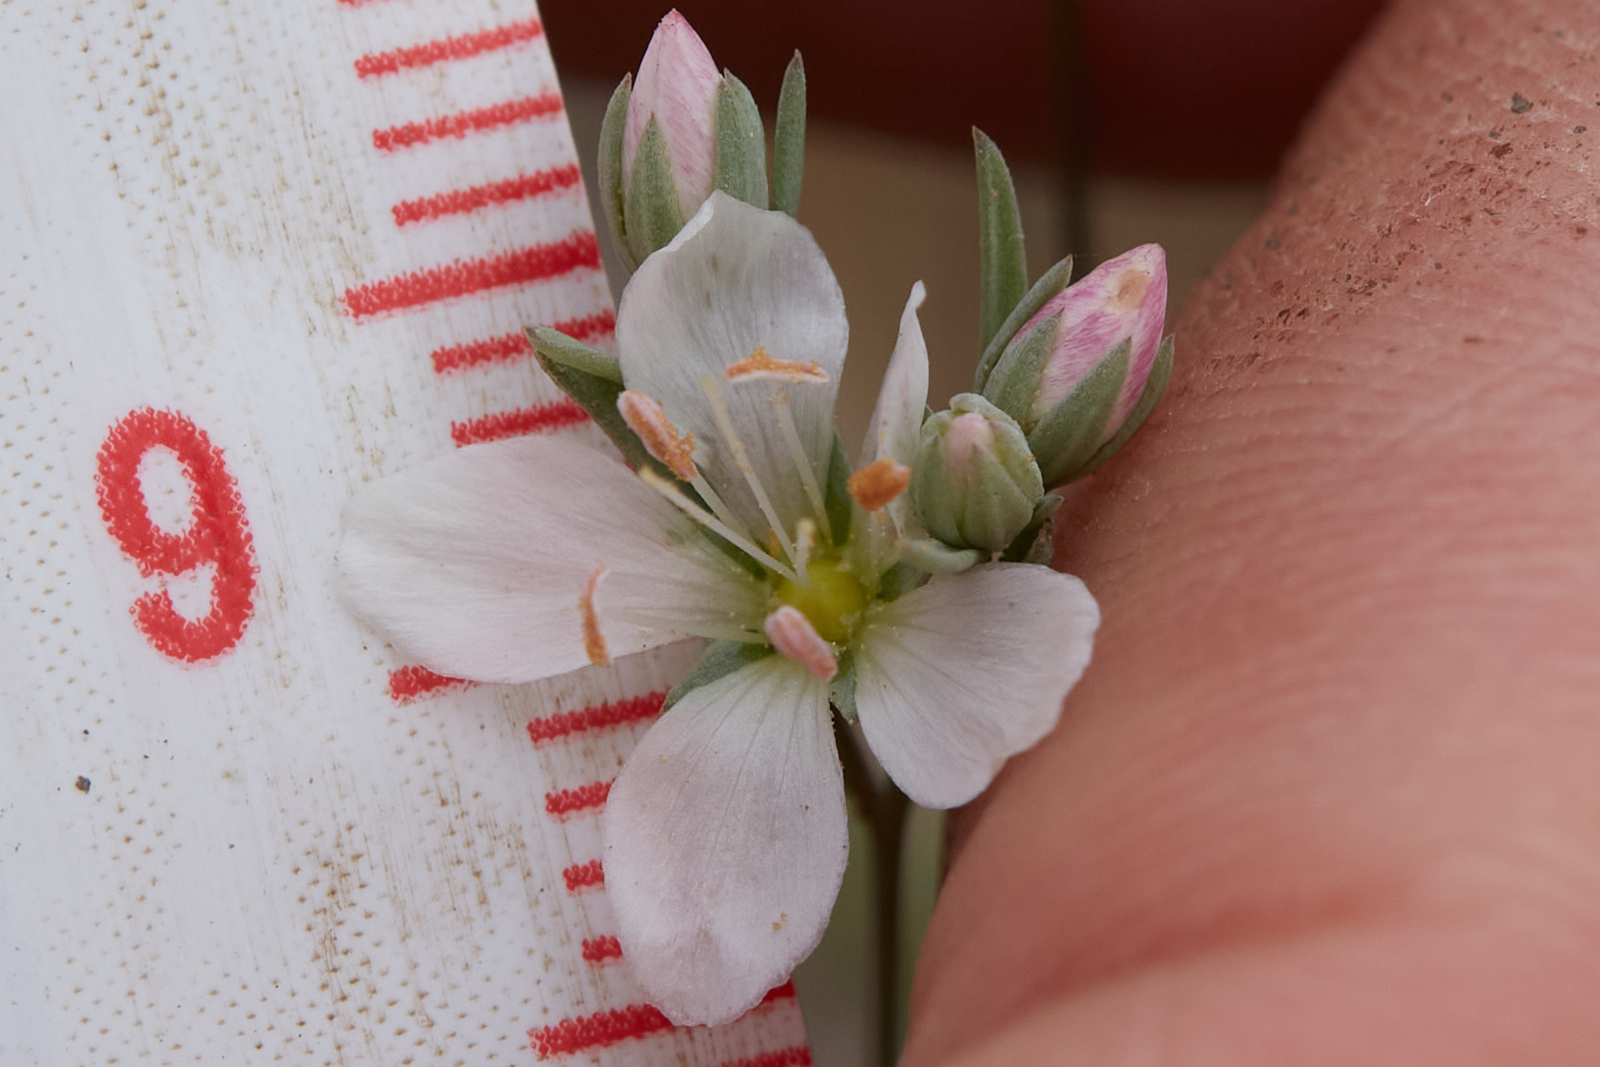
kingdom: Plantae
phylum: Tracheophyta
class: Magnoliopsida
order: Malpighiales
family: Linaceae
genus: Hesperolinon
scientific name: Hesperolinon californicum
